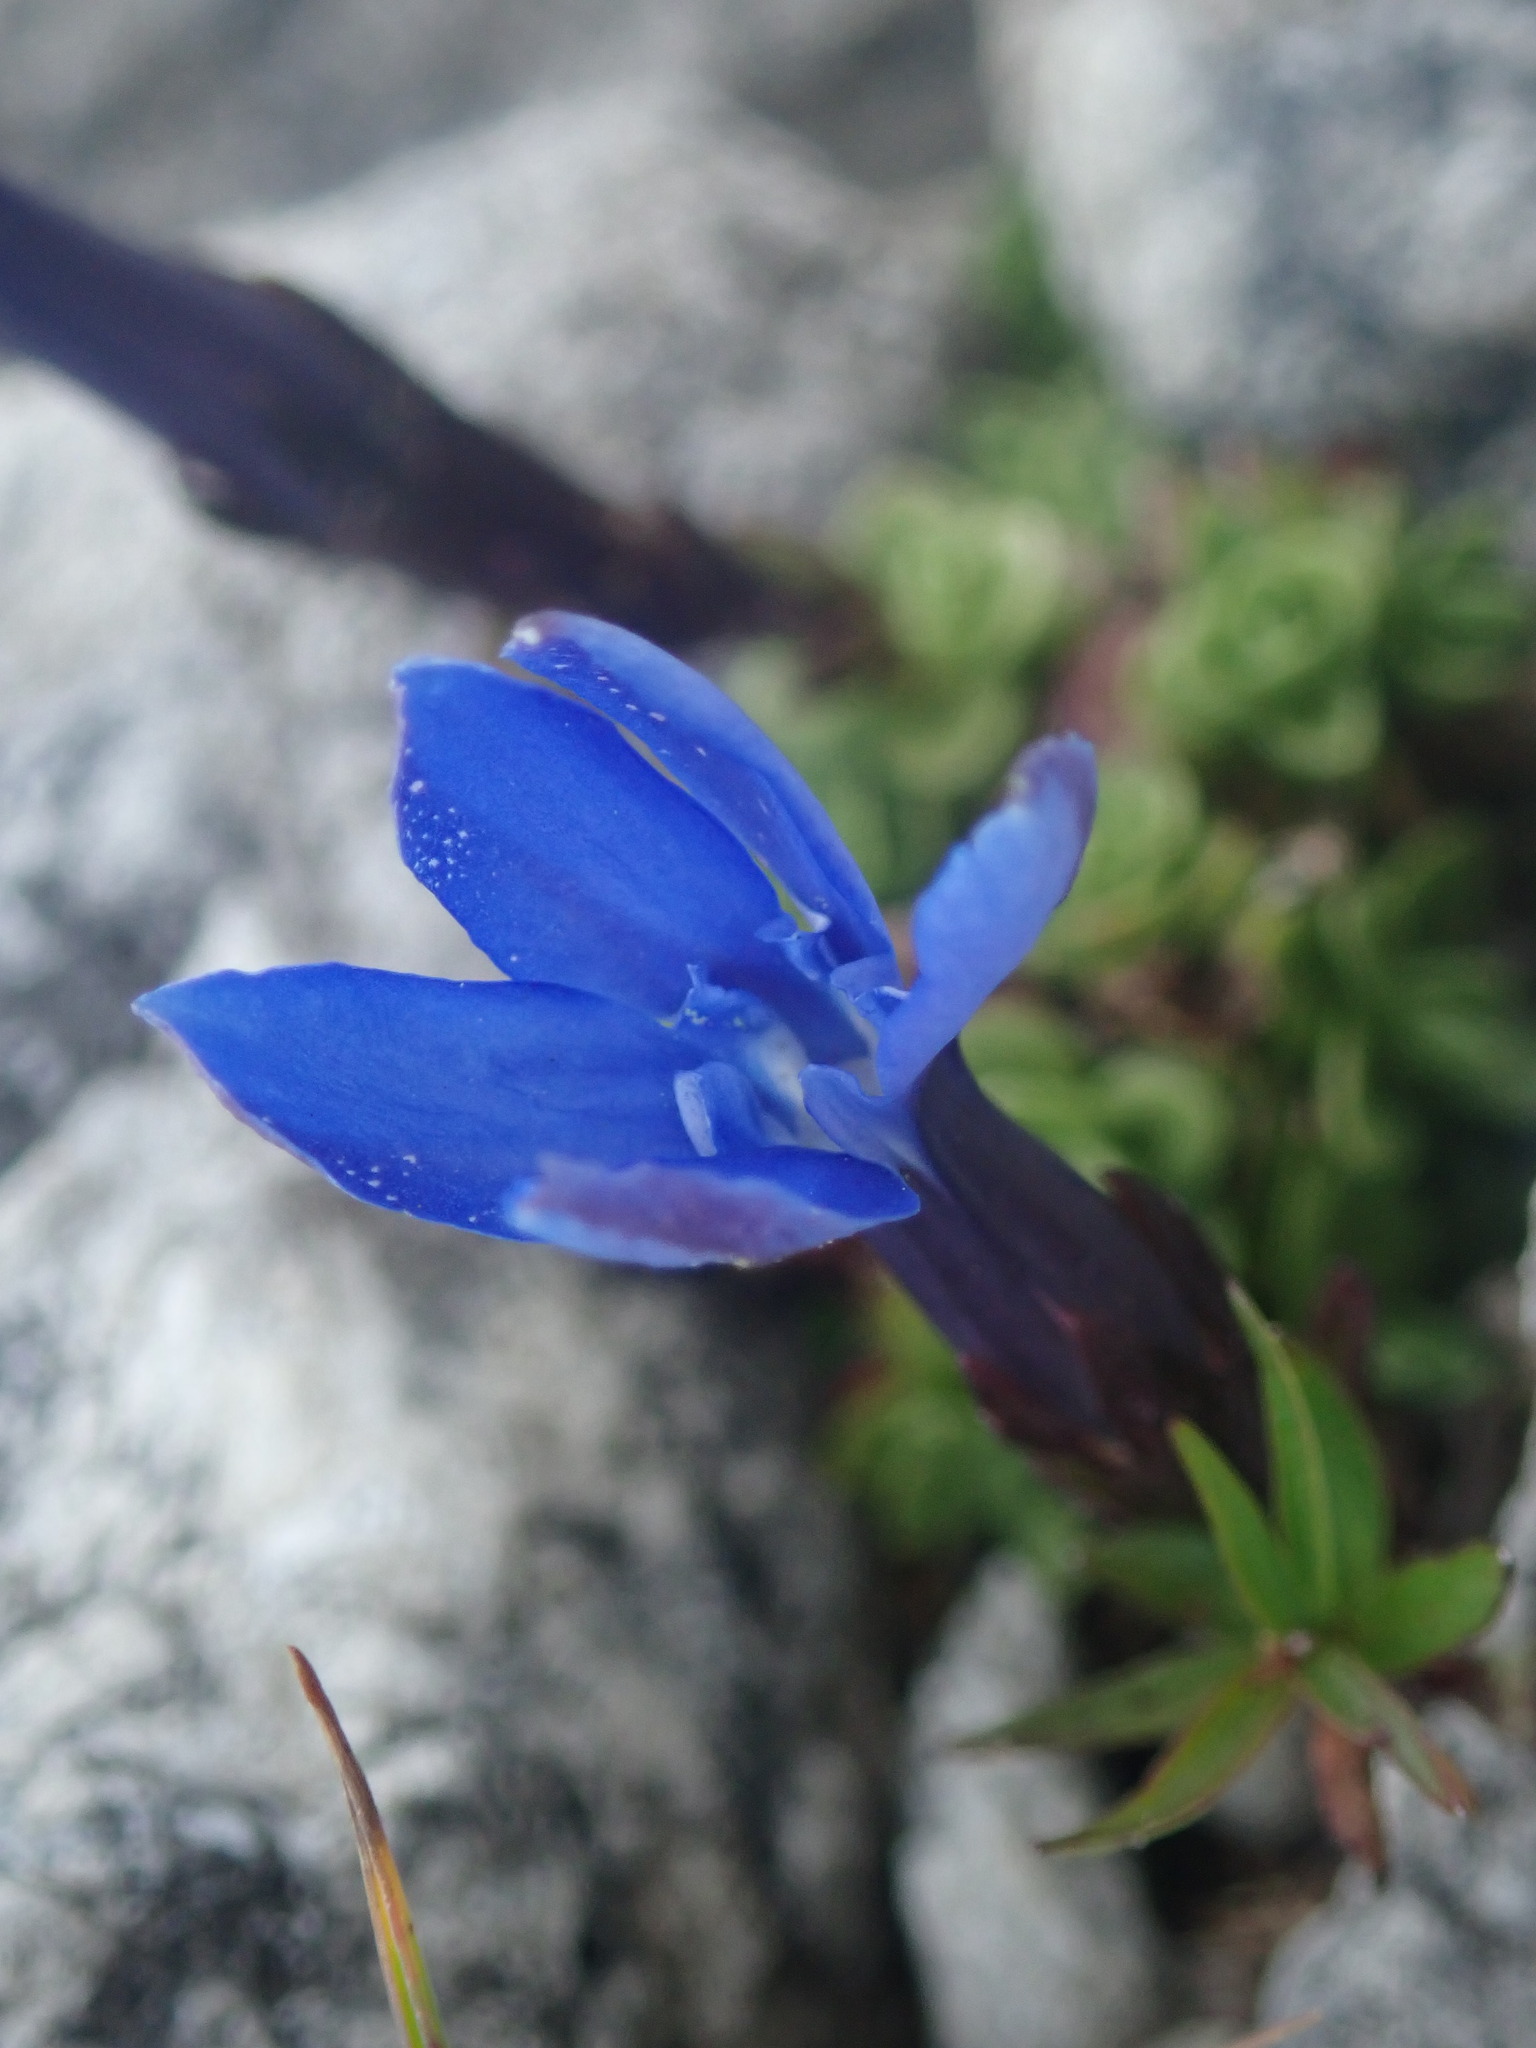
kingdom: Plantae
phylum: Tracheophyta
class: Magnoliopsida
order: Gentianales
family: Gentianaceae
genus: Gentiana
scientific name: Gentiana orbicularis
